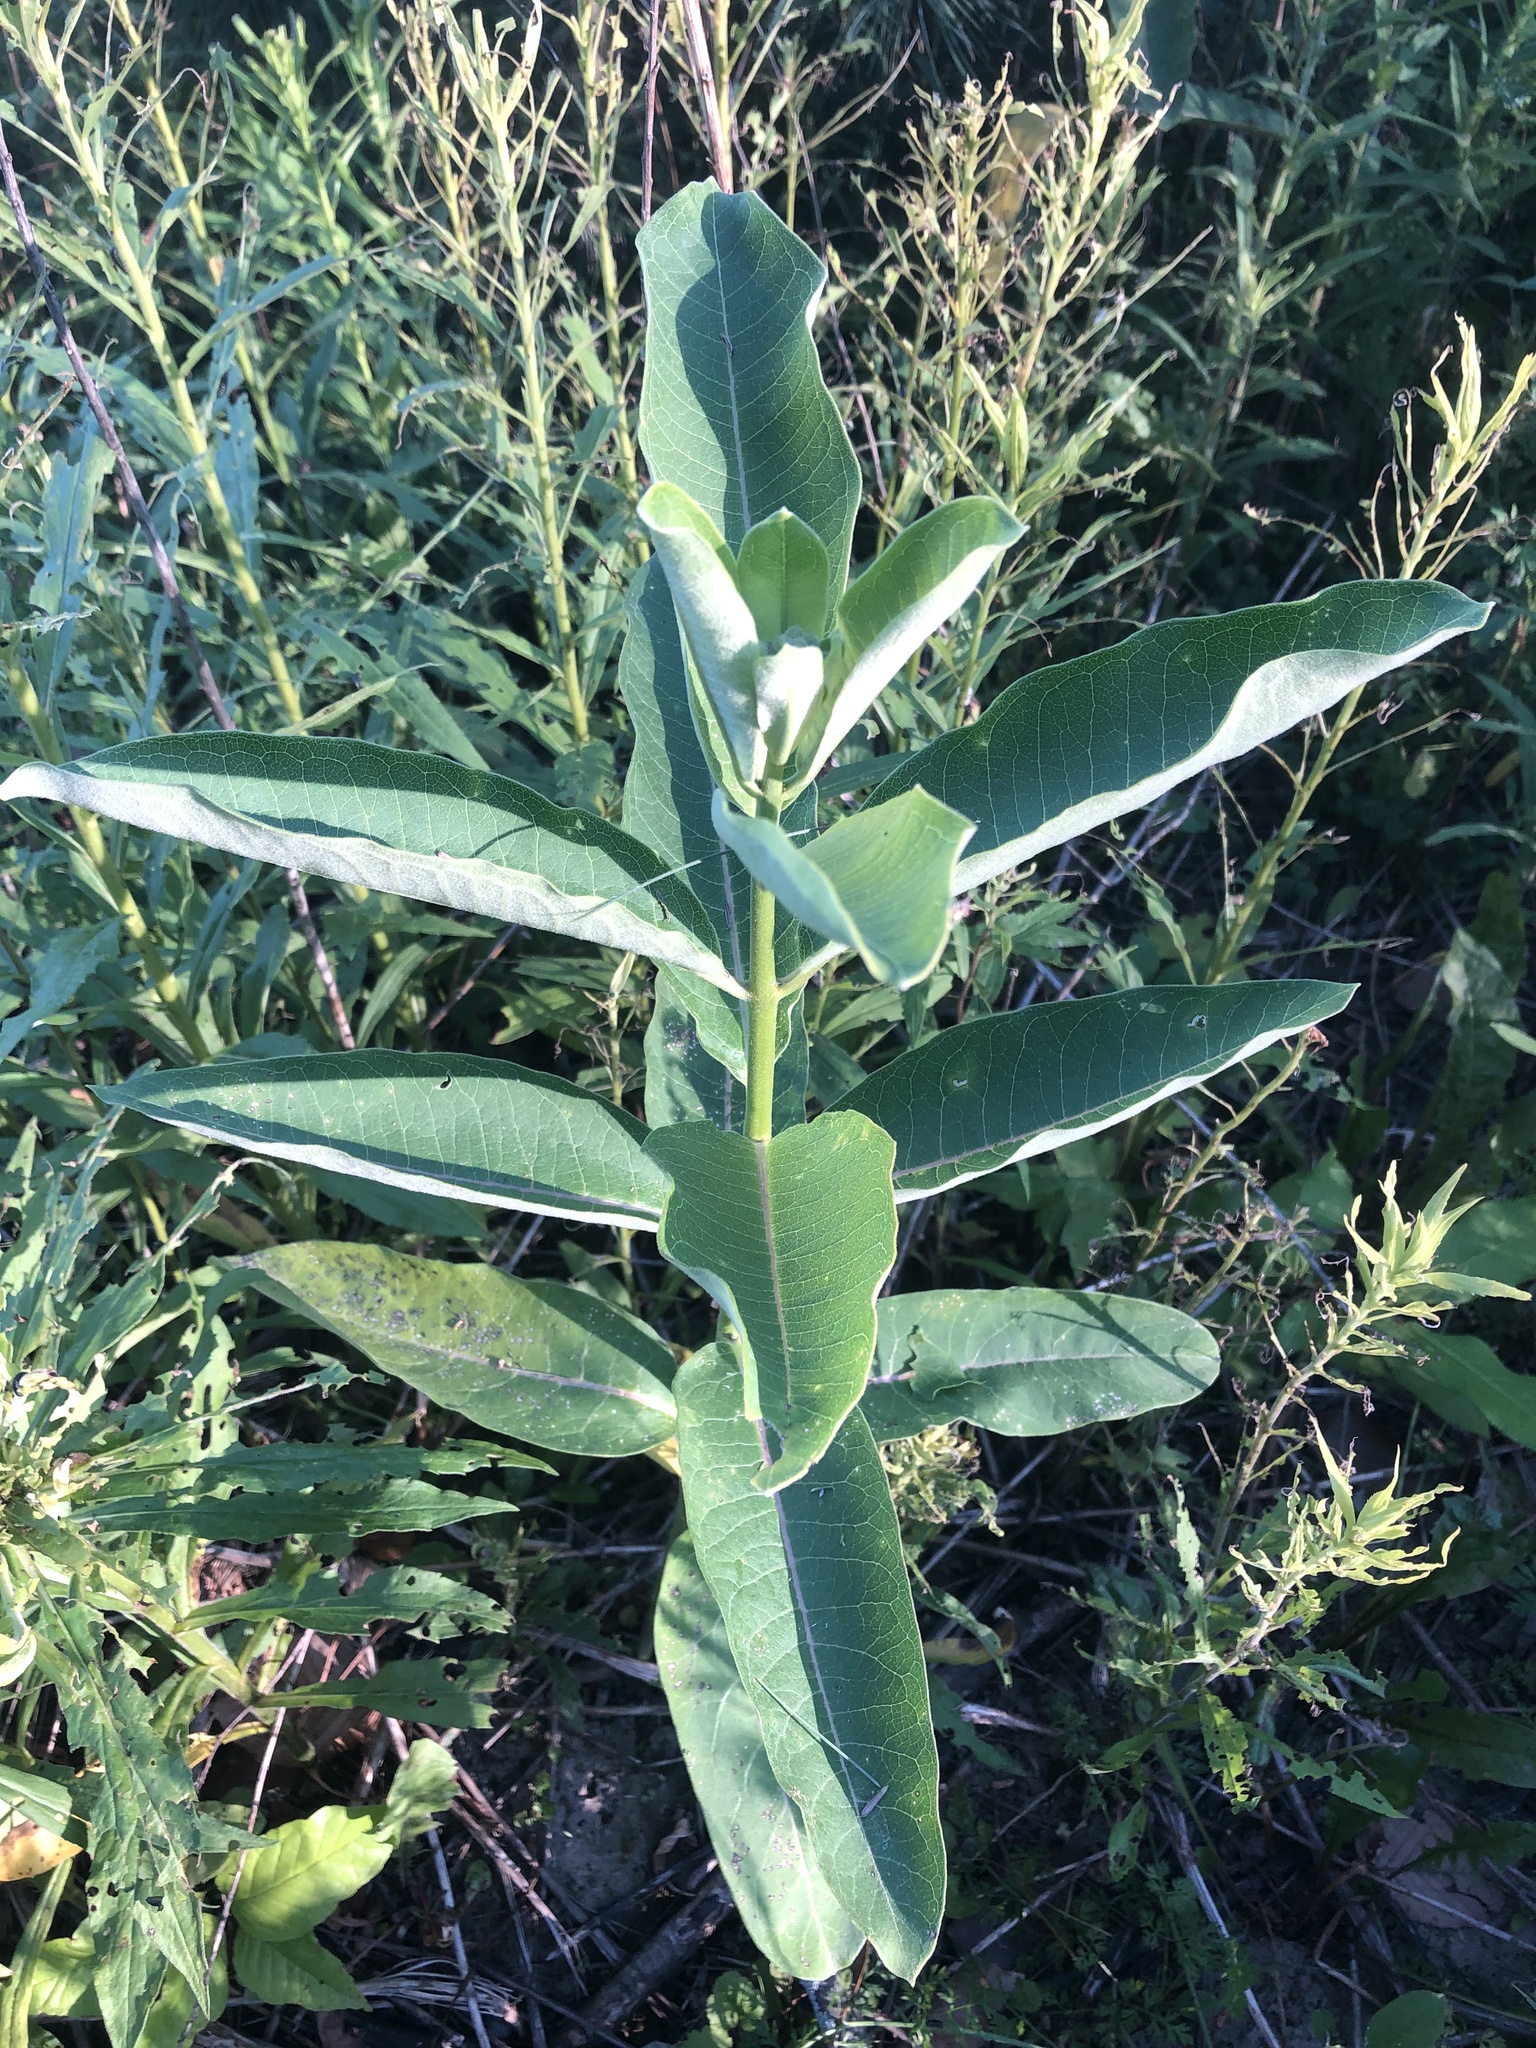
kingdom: Plantae
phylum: Tracheophyta
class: Magnoliopsida
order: Gentianales
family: Apocynaceae
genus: Asclepias
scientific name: Asclepias syriaca
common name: Common milkweed
